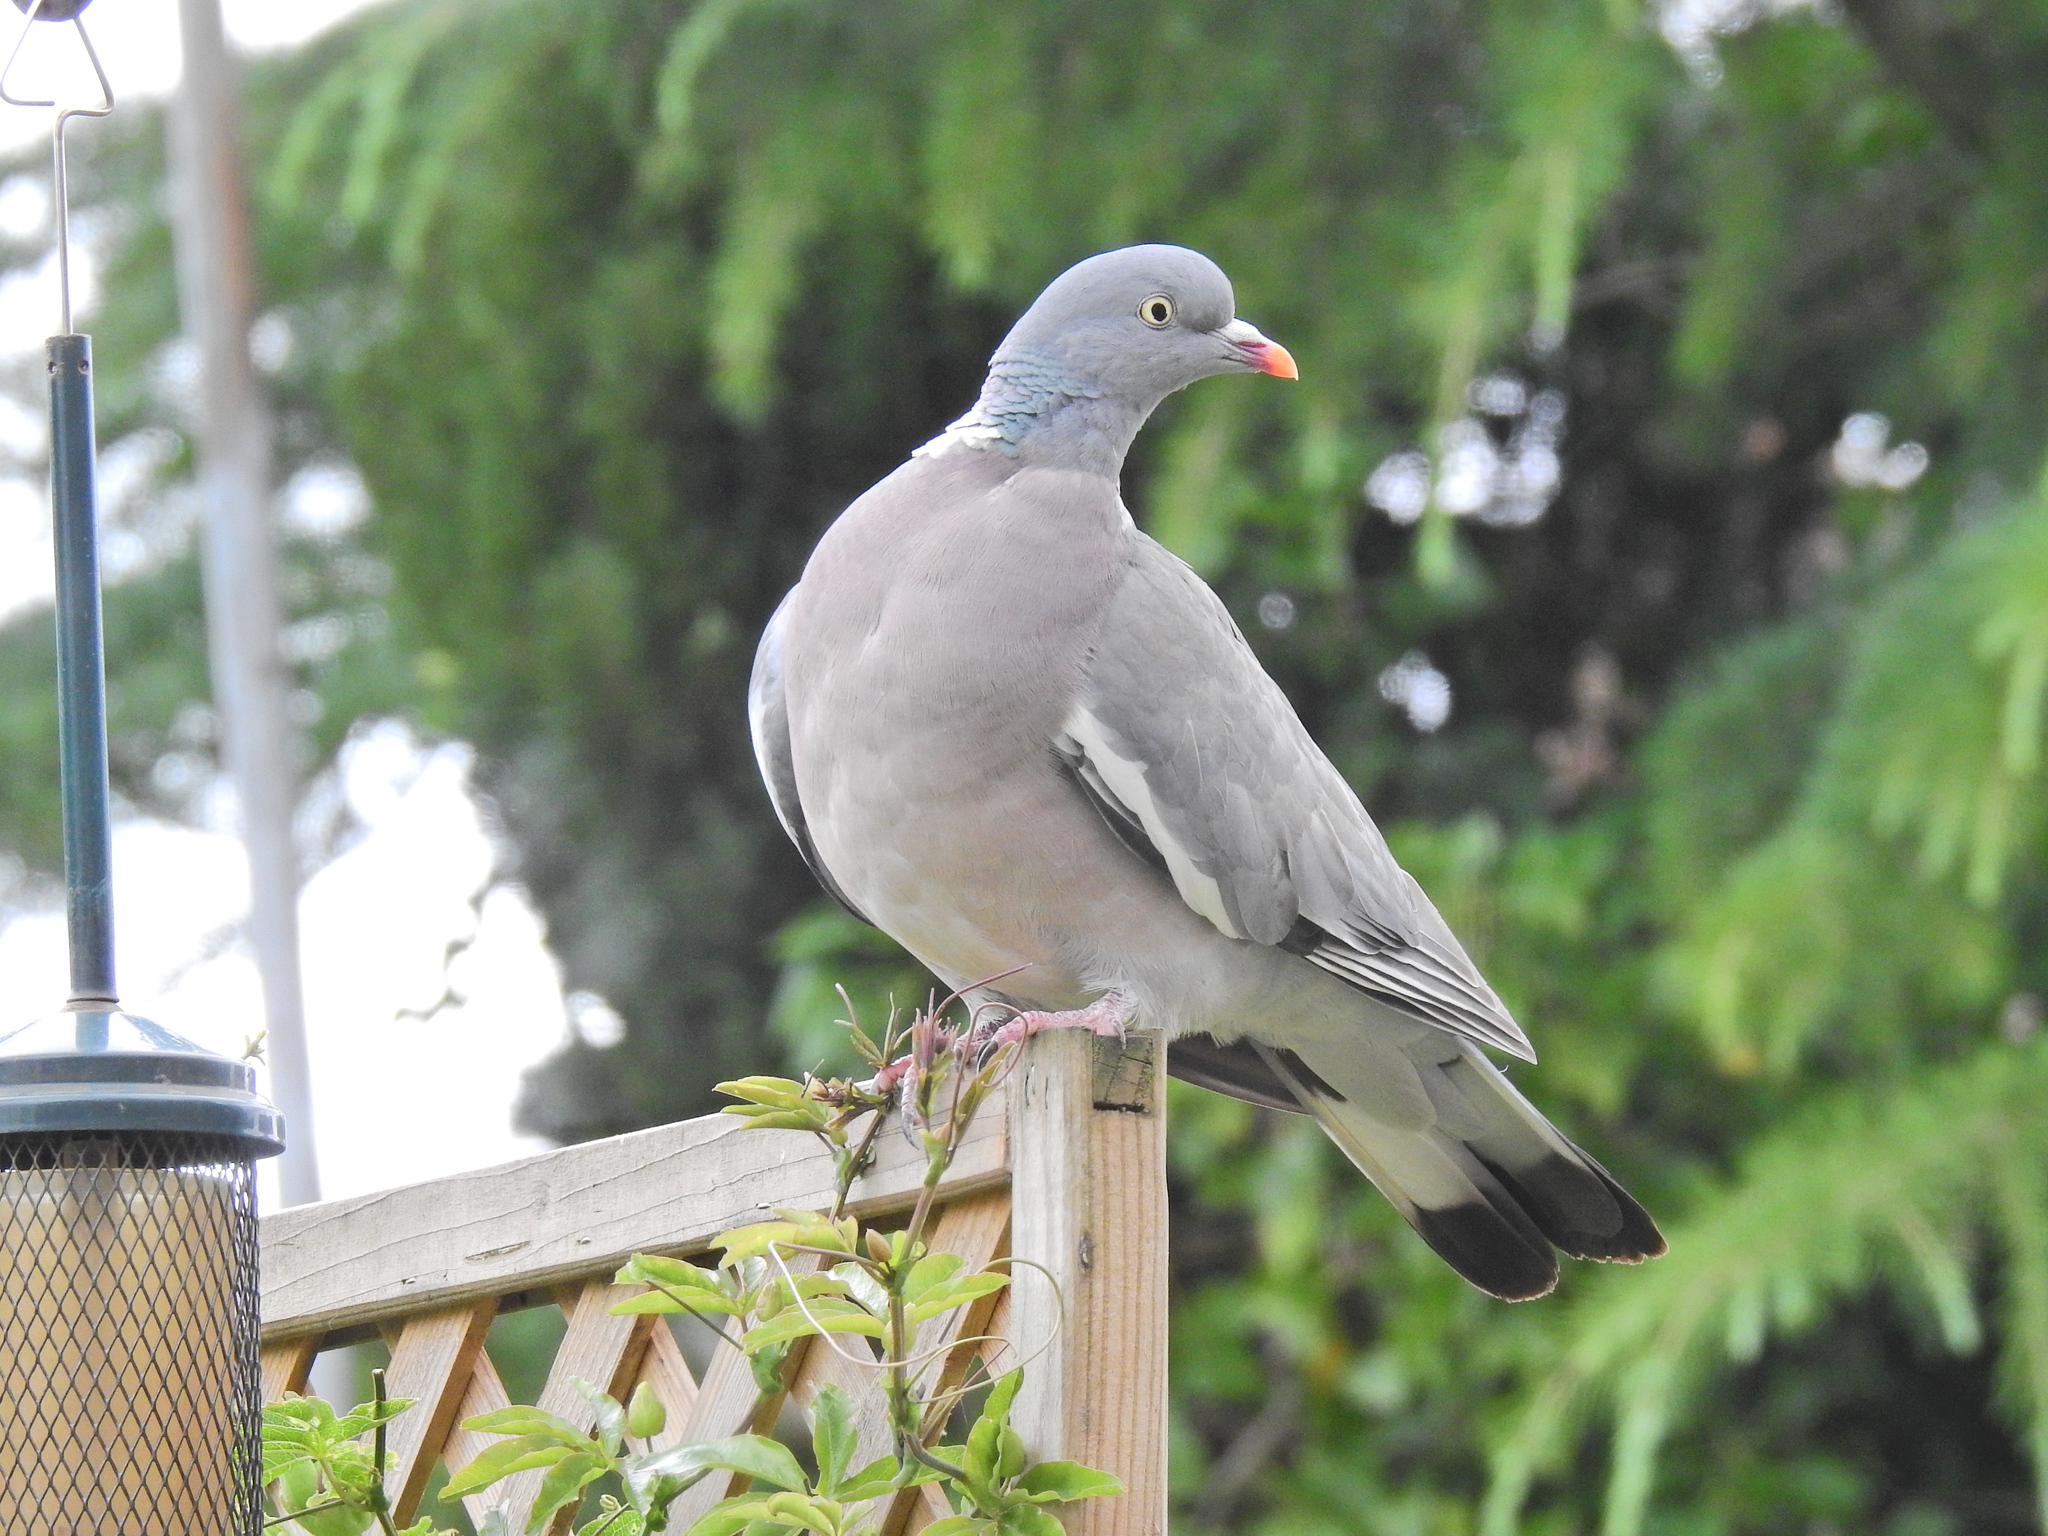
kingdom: Animalia
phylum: Chordata
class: Aves
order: Columbiformes
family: Columbidae
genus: Columba
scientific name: Columba palumbus
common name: Common wood pigeon
